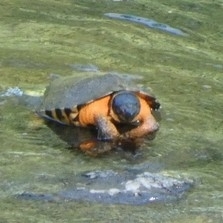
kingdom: Animalia
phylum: Chordata
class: Testudines
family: Emydidae
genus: Glyptemys
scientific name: Glyptemys insculpta
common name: Wood turtle
